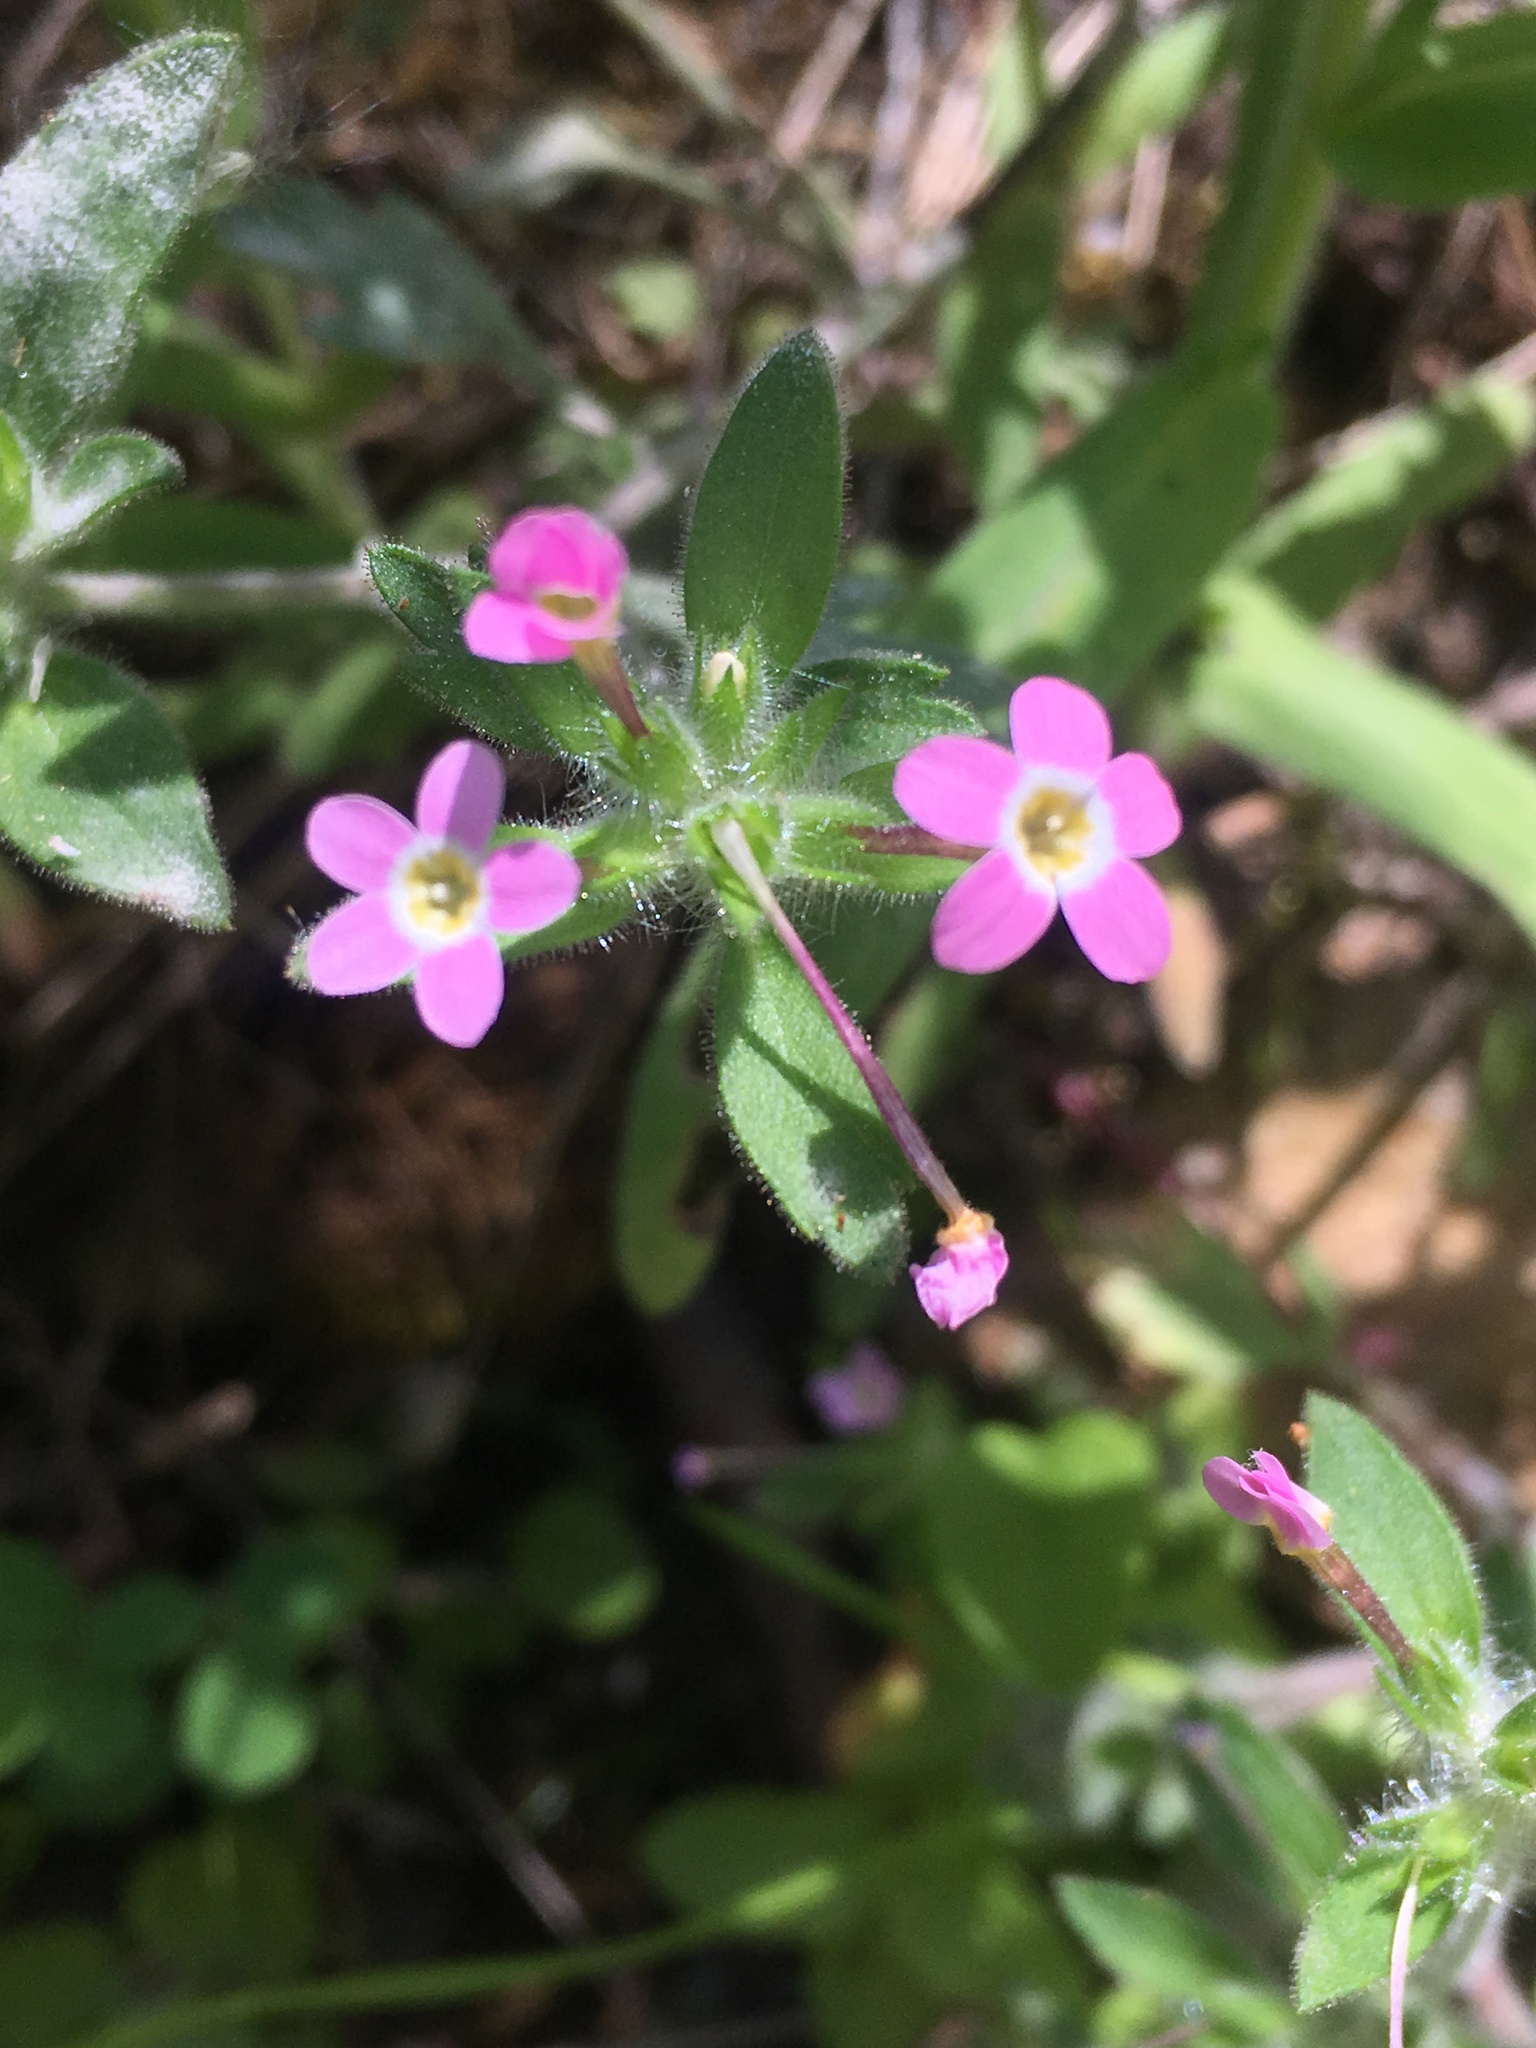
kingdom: Plantae
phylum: Tracheophyta
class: Magnoliopsida
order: Ericales
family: Polemoniaceae
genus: Collomia
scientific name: Collomia heterophylla
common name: Variable-leaved collomia
